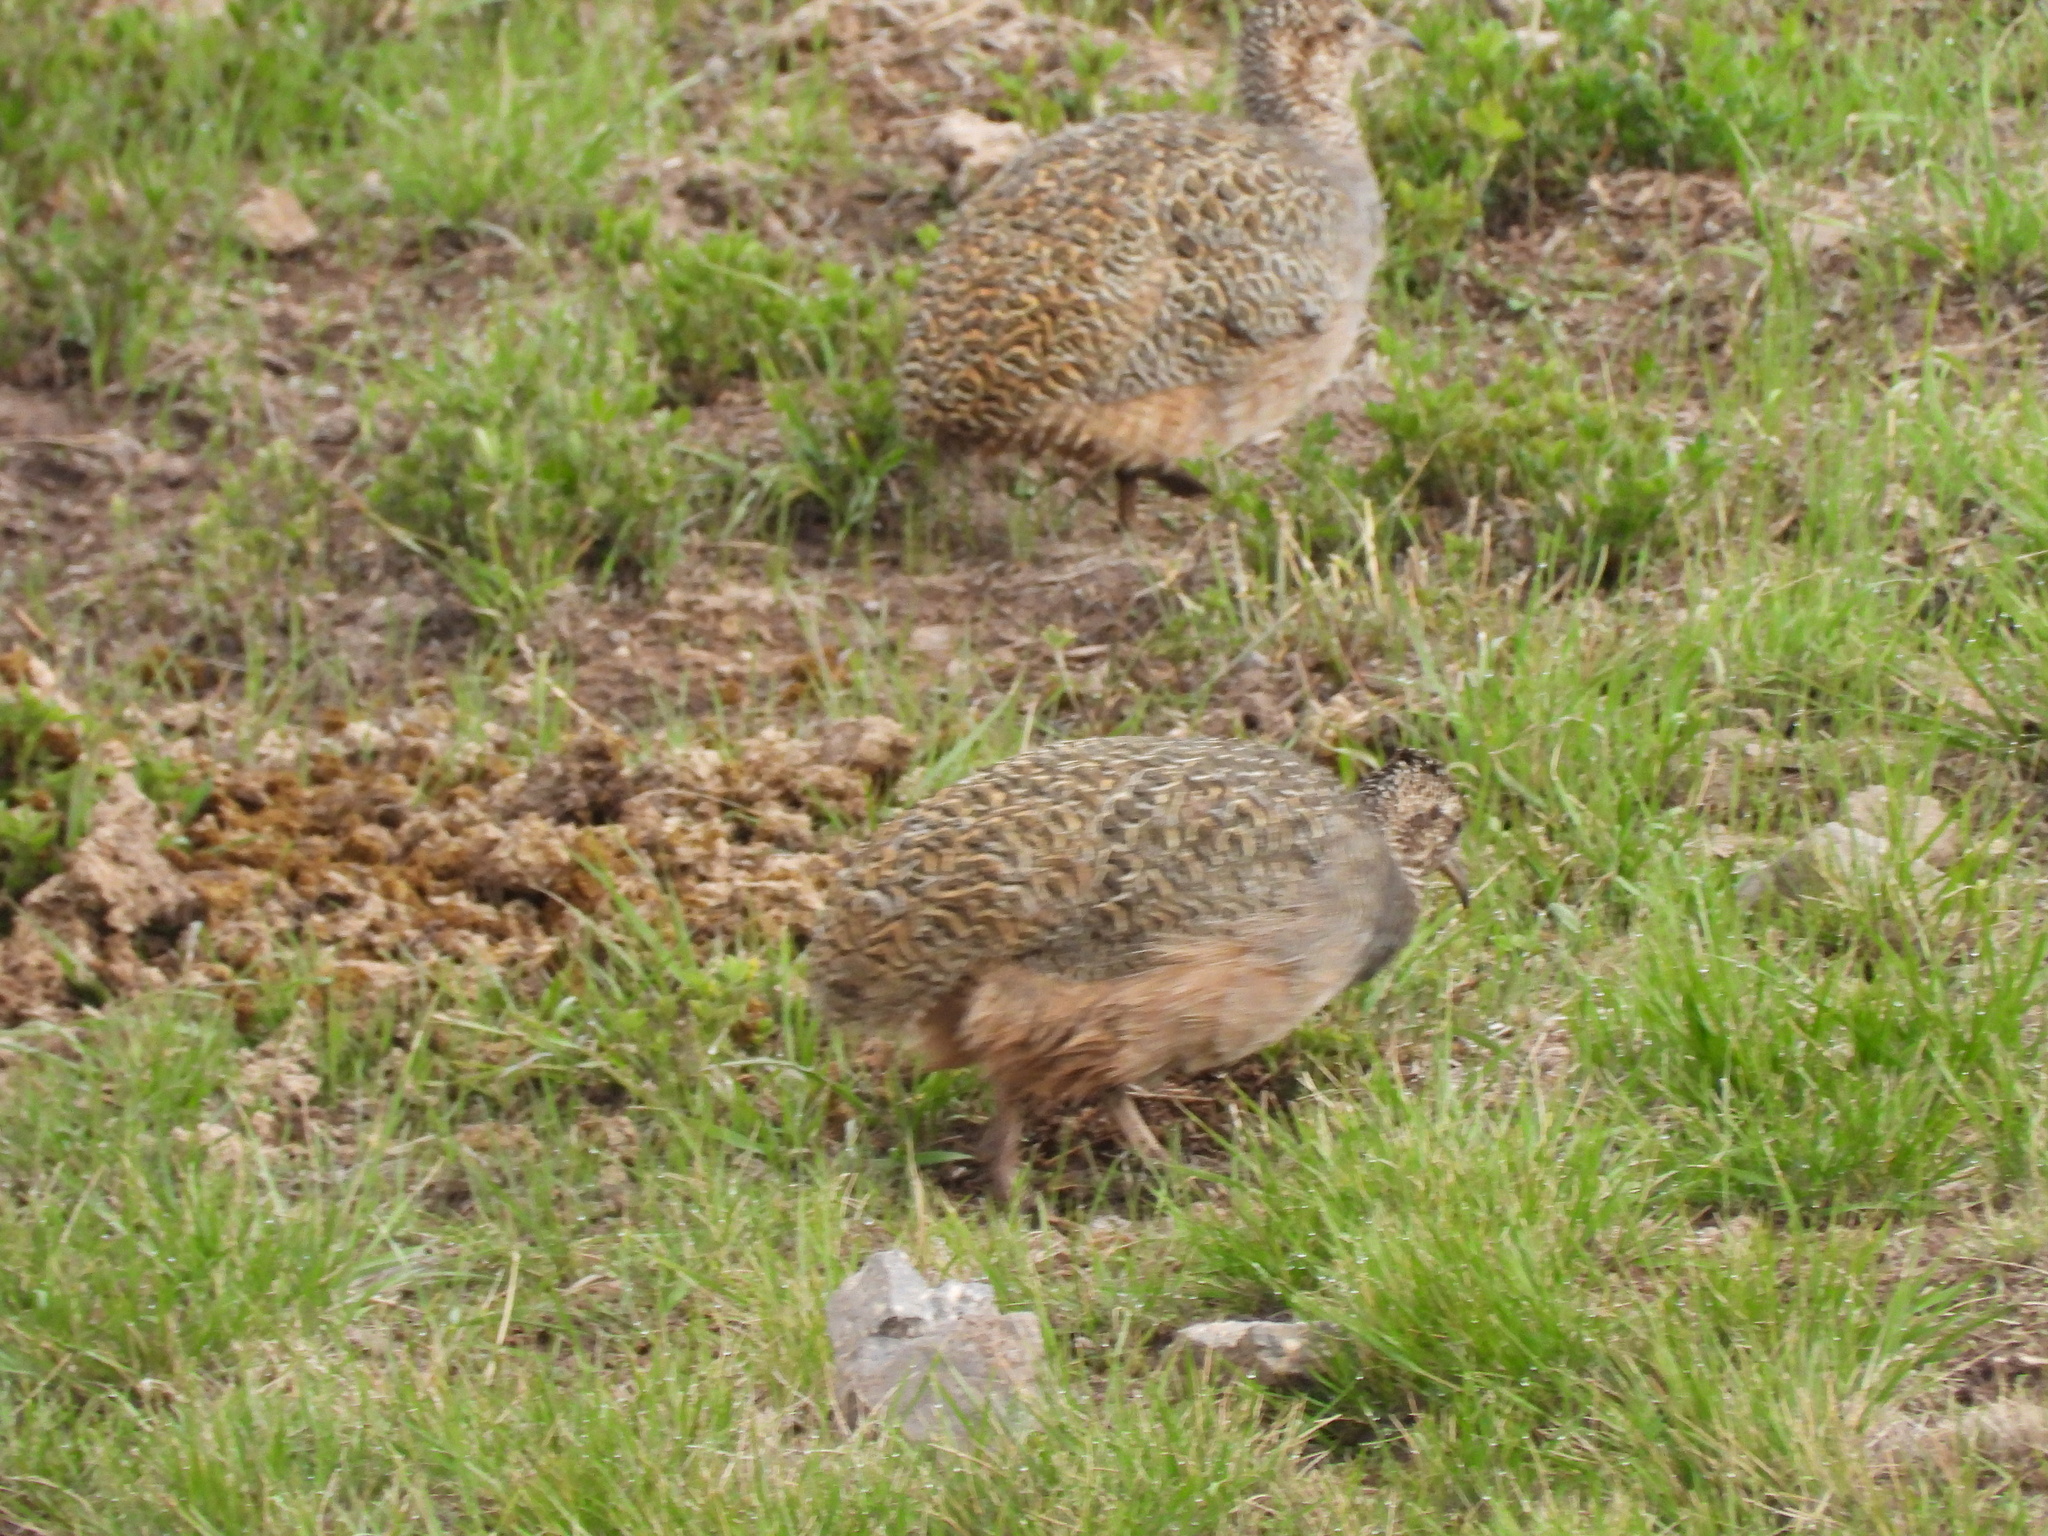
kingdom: Animalia
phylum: Chordata
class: Aves
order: Tinamiformes
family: Tinamidae
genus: Nothoprocta
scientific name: Nothoprocta ornata
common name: Ornate tinamou
